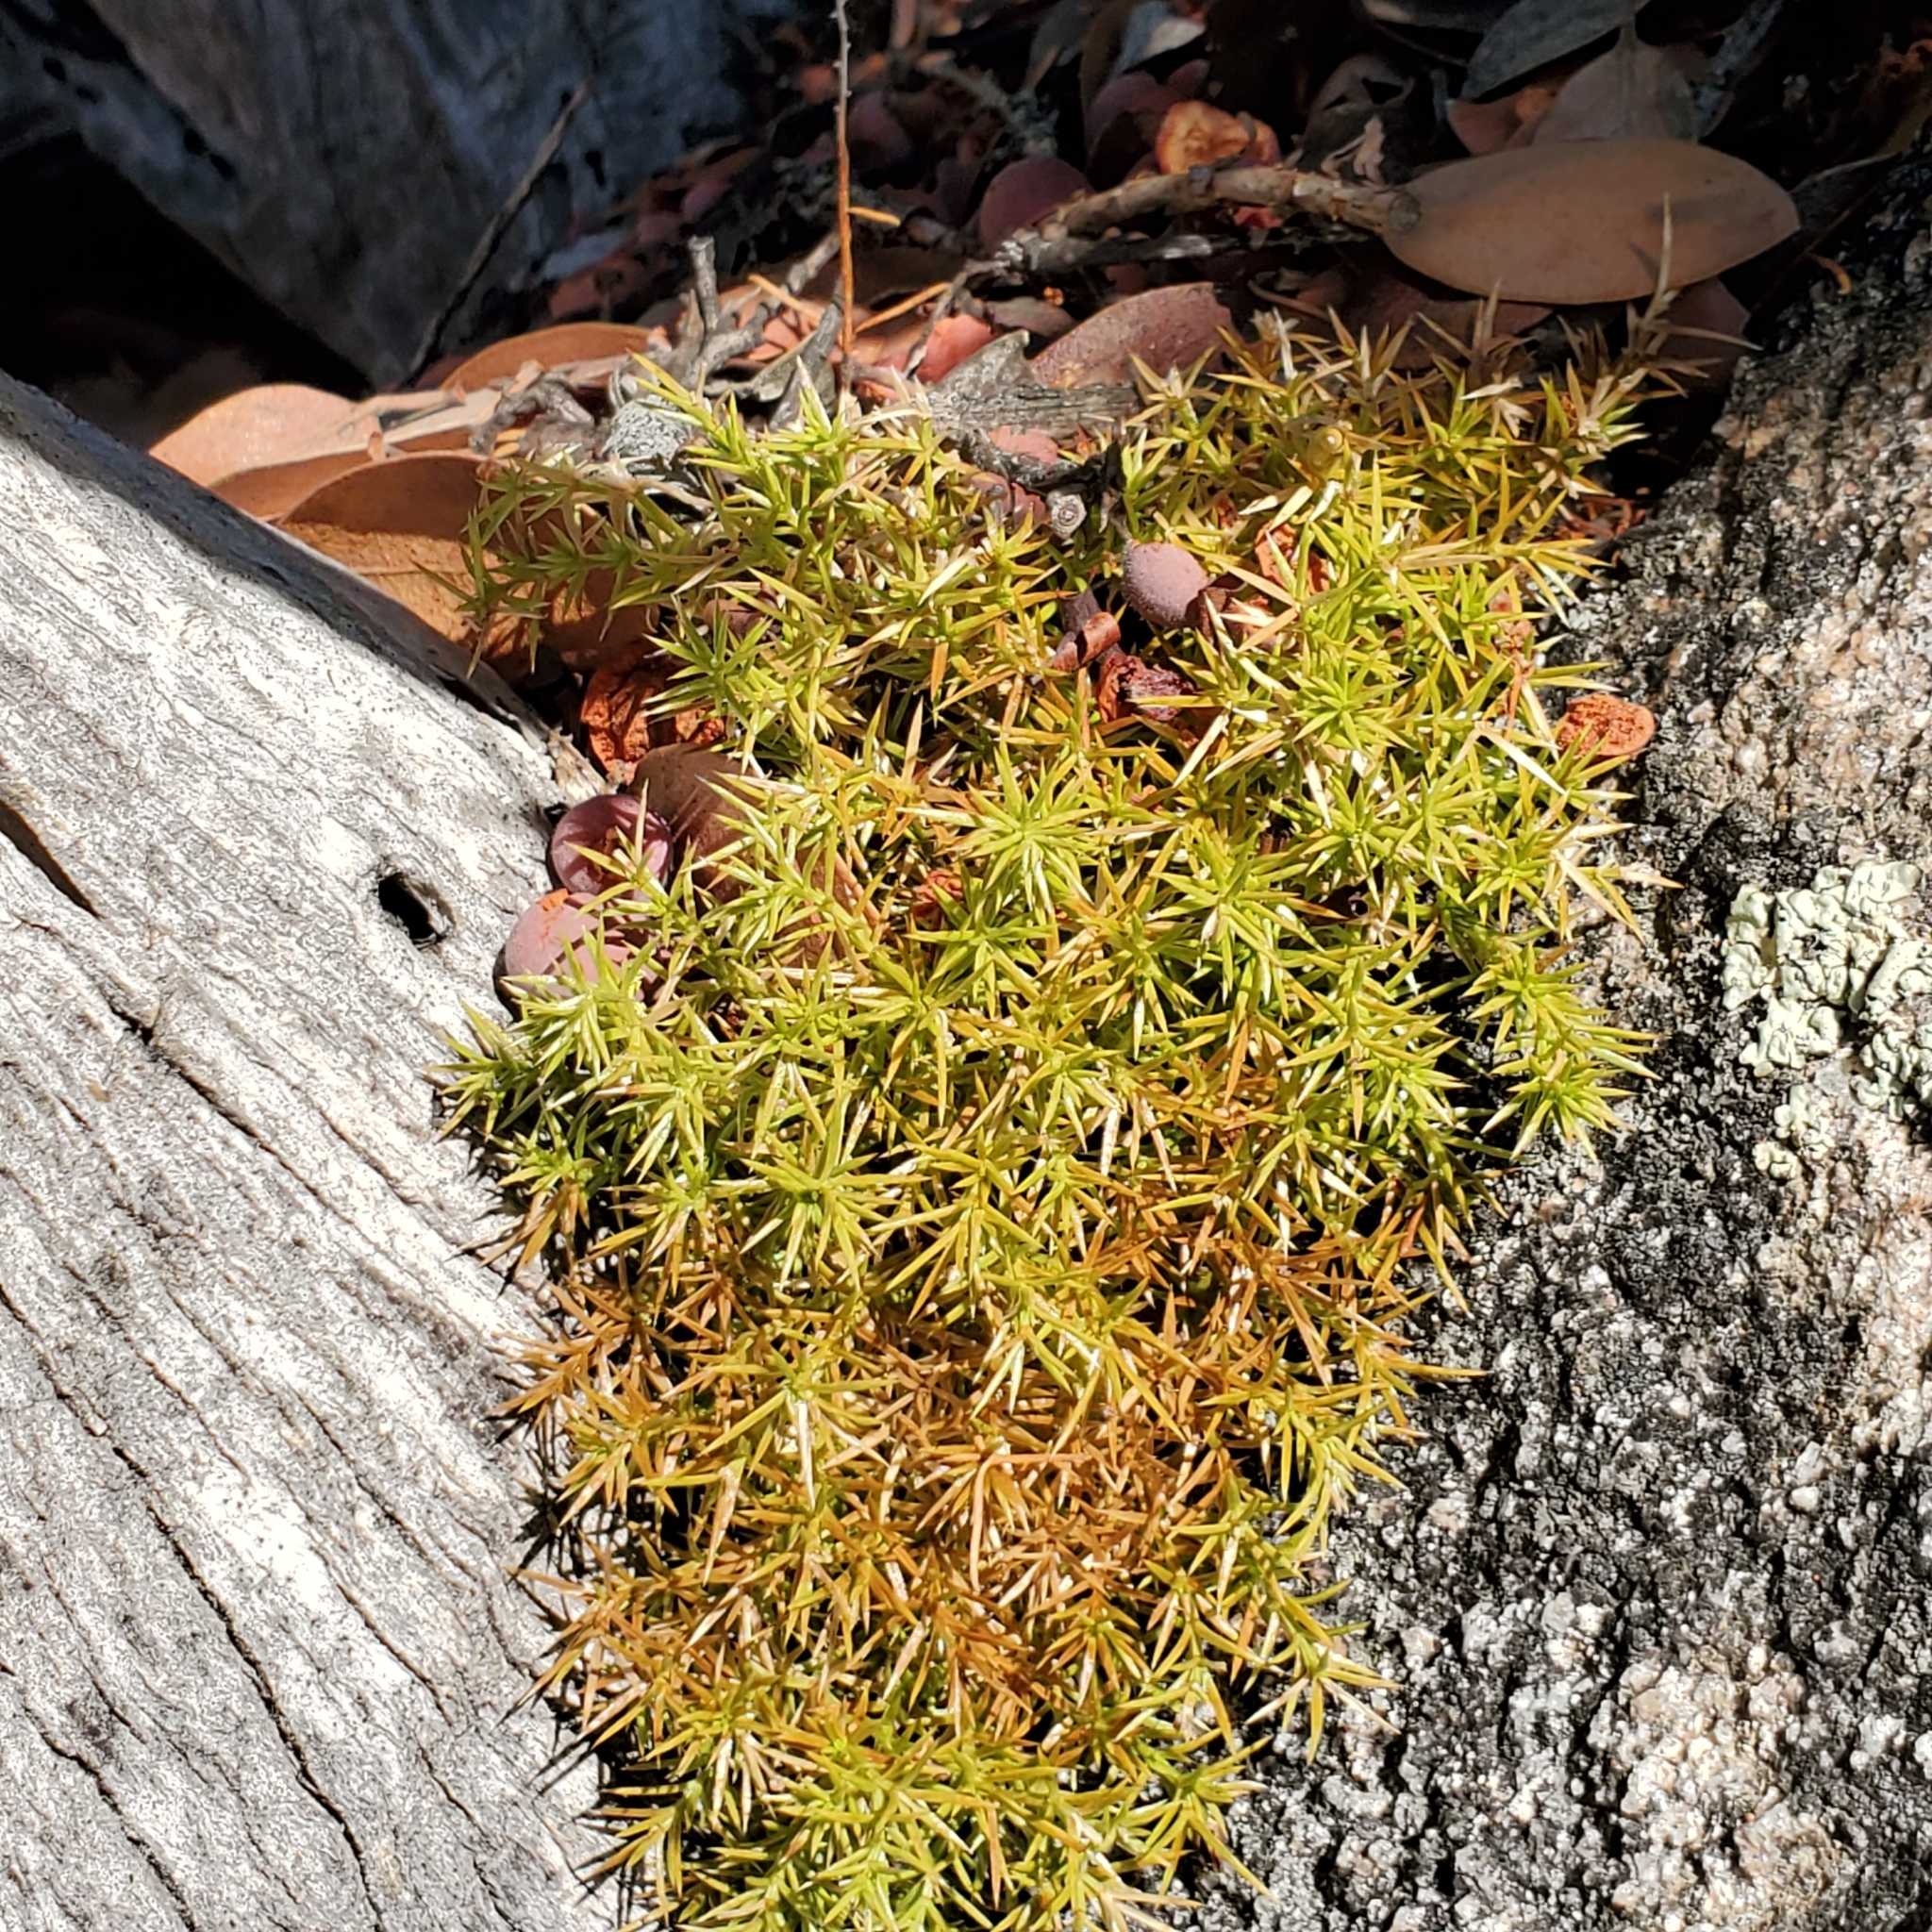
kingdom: Plantae
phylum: Tracheophyta
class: Magnoliopsida
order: Gentianales
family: Rubiaceae
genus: Galium
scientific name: Galium andrewsii
